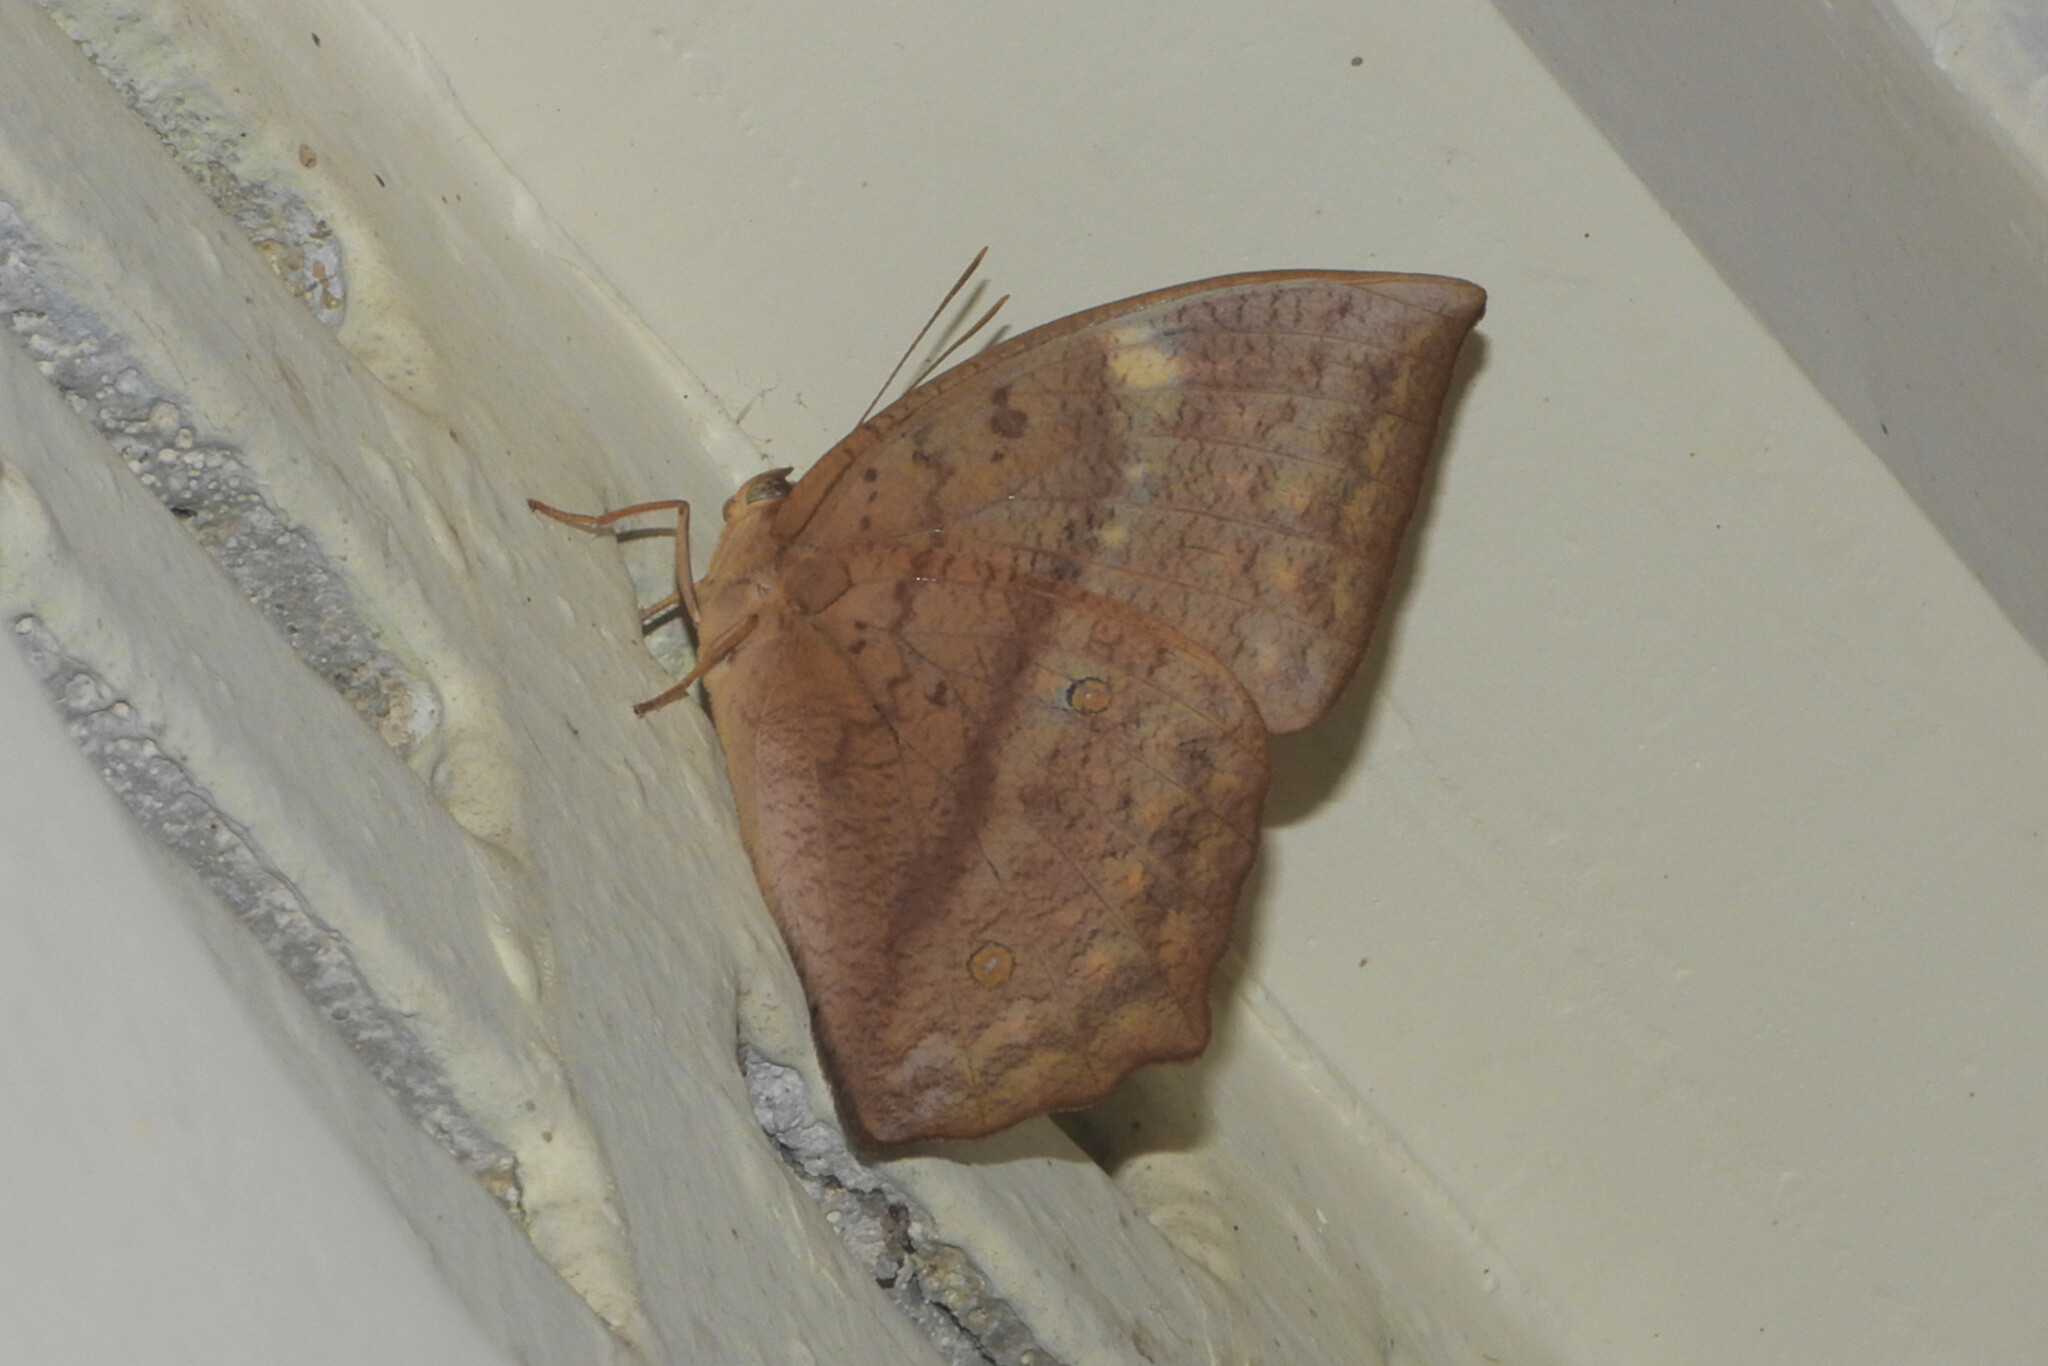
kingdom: Animalia
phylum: Arthropoda
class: Insecta
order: Lepidoptera
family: Nymphalidae
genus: Discophora
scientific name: Discophora sondaica
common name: Common duffer
